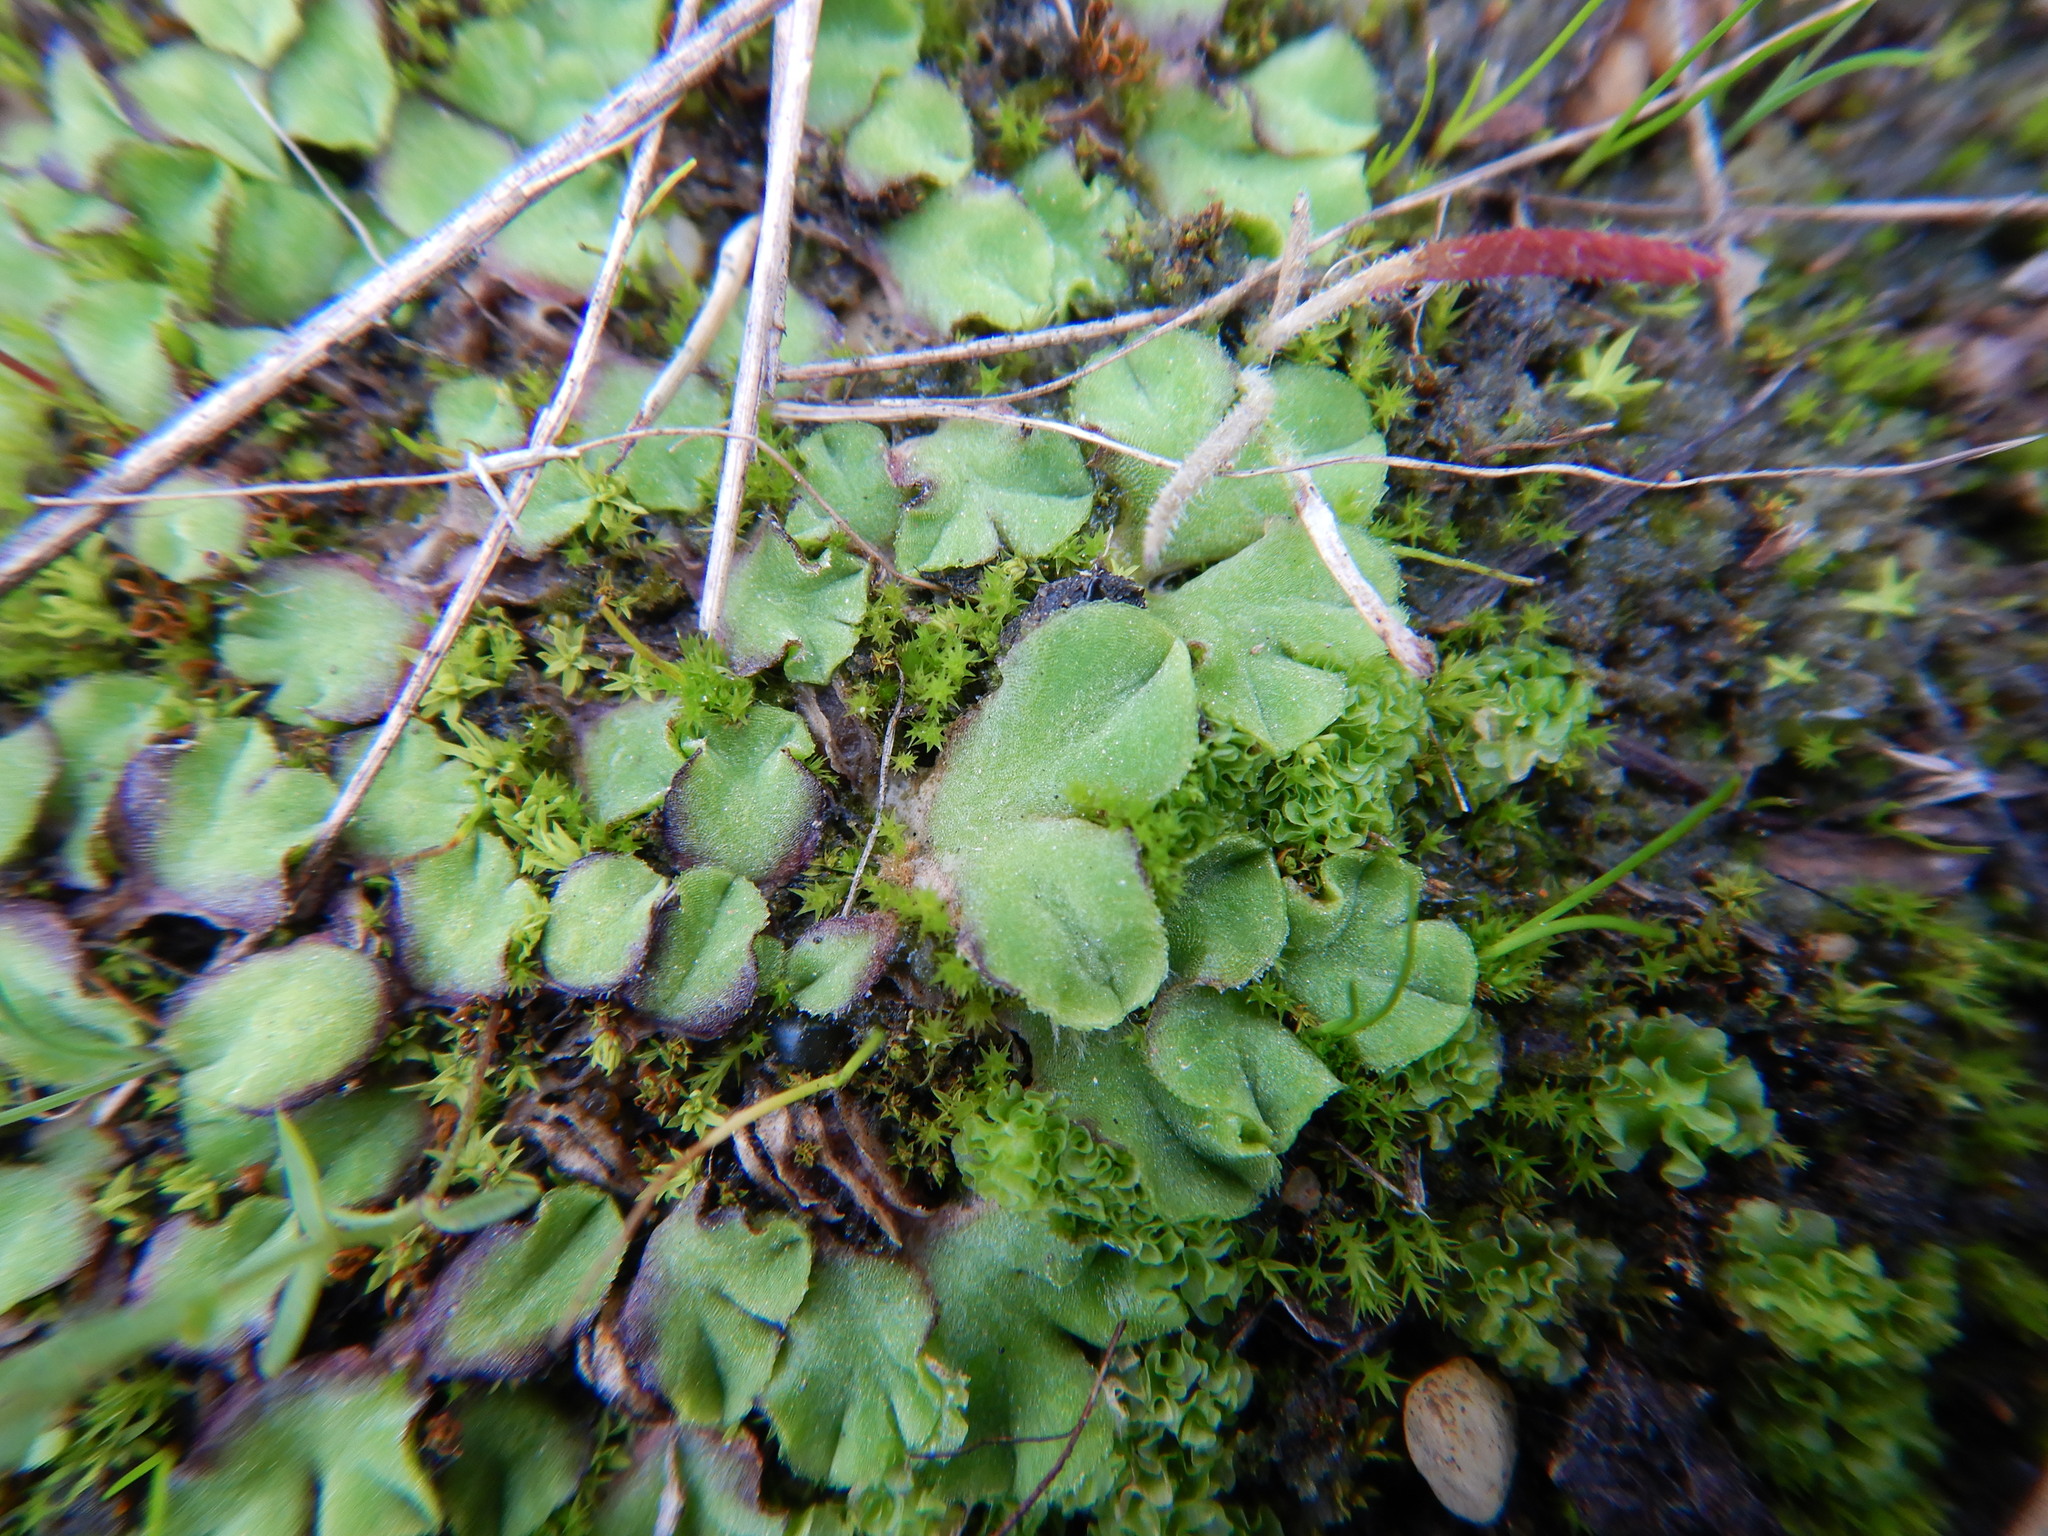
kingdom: Plantae
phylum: Marchantiophyta
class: Marchantiopsida
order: Marchantiales
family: Ricciaceae
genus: Riccia
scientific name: Riccia gougetiana
